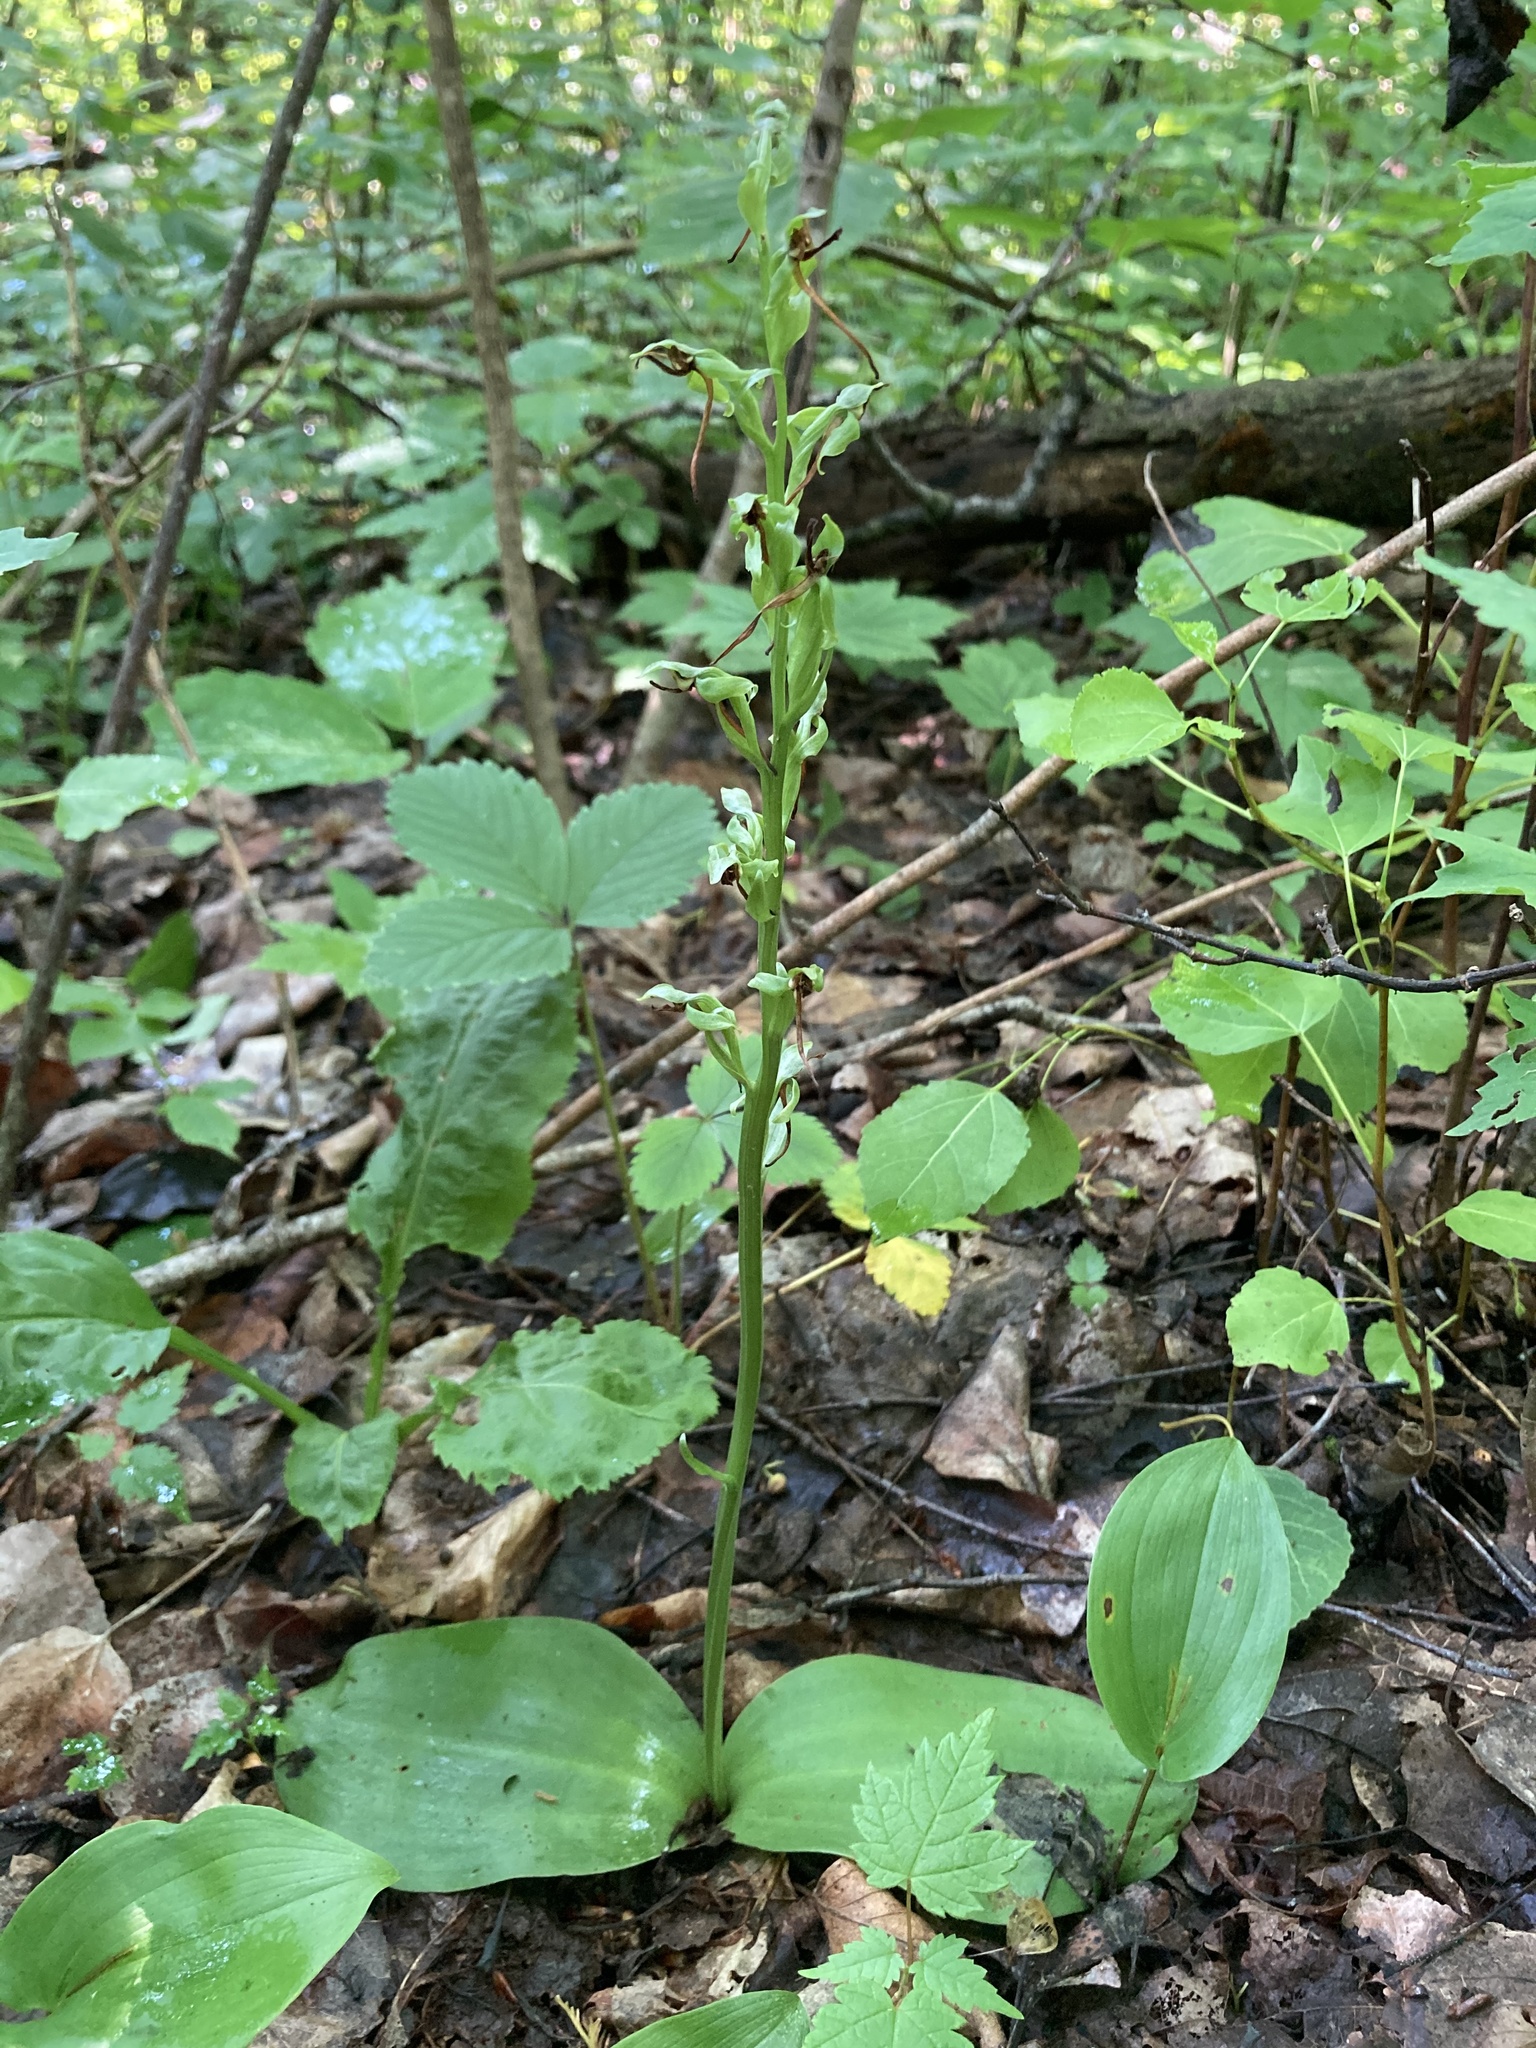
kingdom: Plantae
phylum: Tracheophyta
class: Liliopsida
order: Asparagales
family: Orchidaceae
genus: Platanthera
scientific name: Platanthera hookeri
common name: Hooker's orchid
